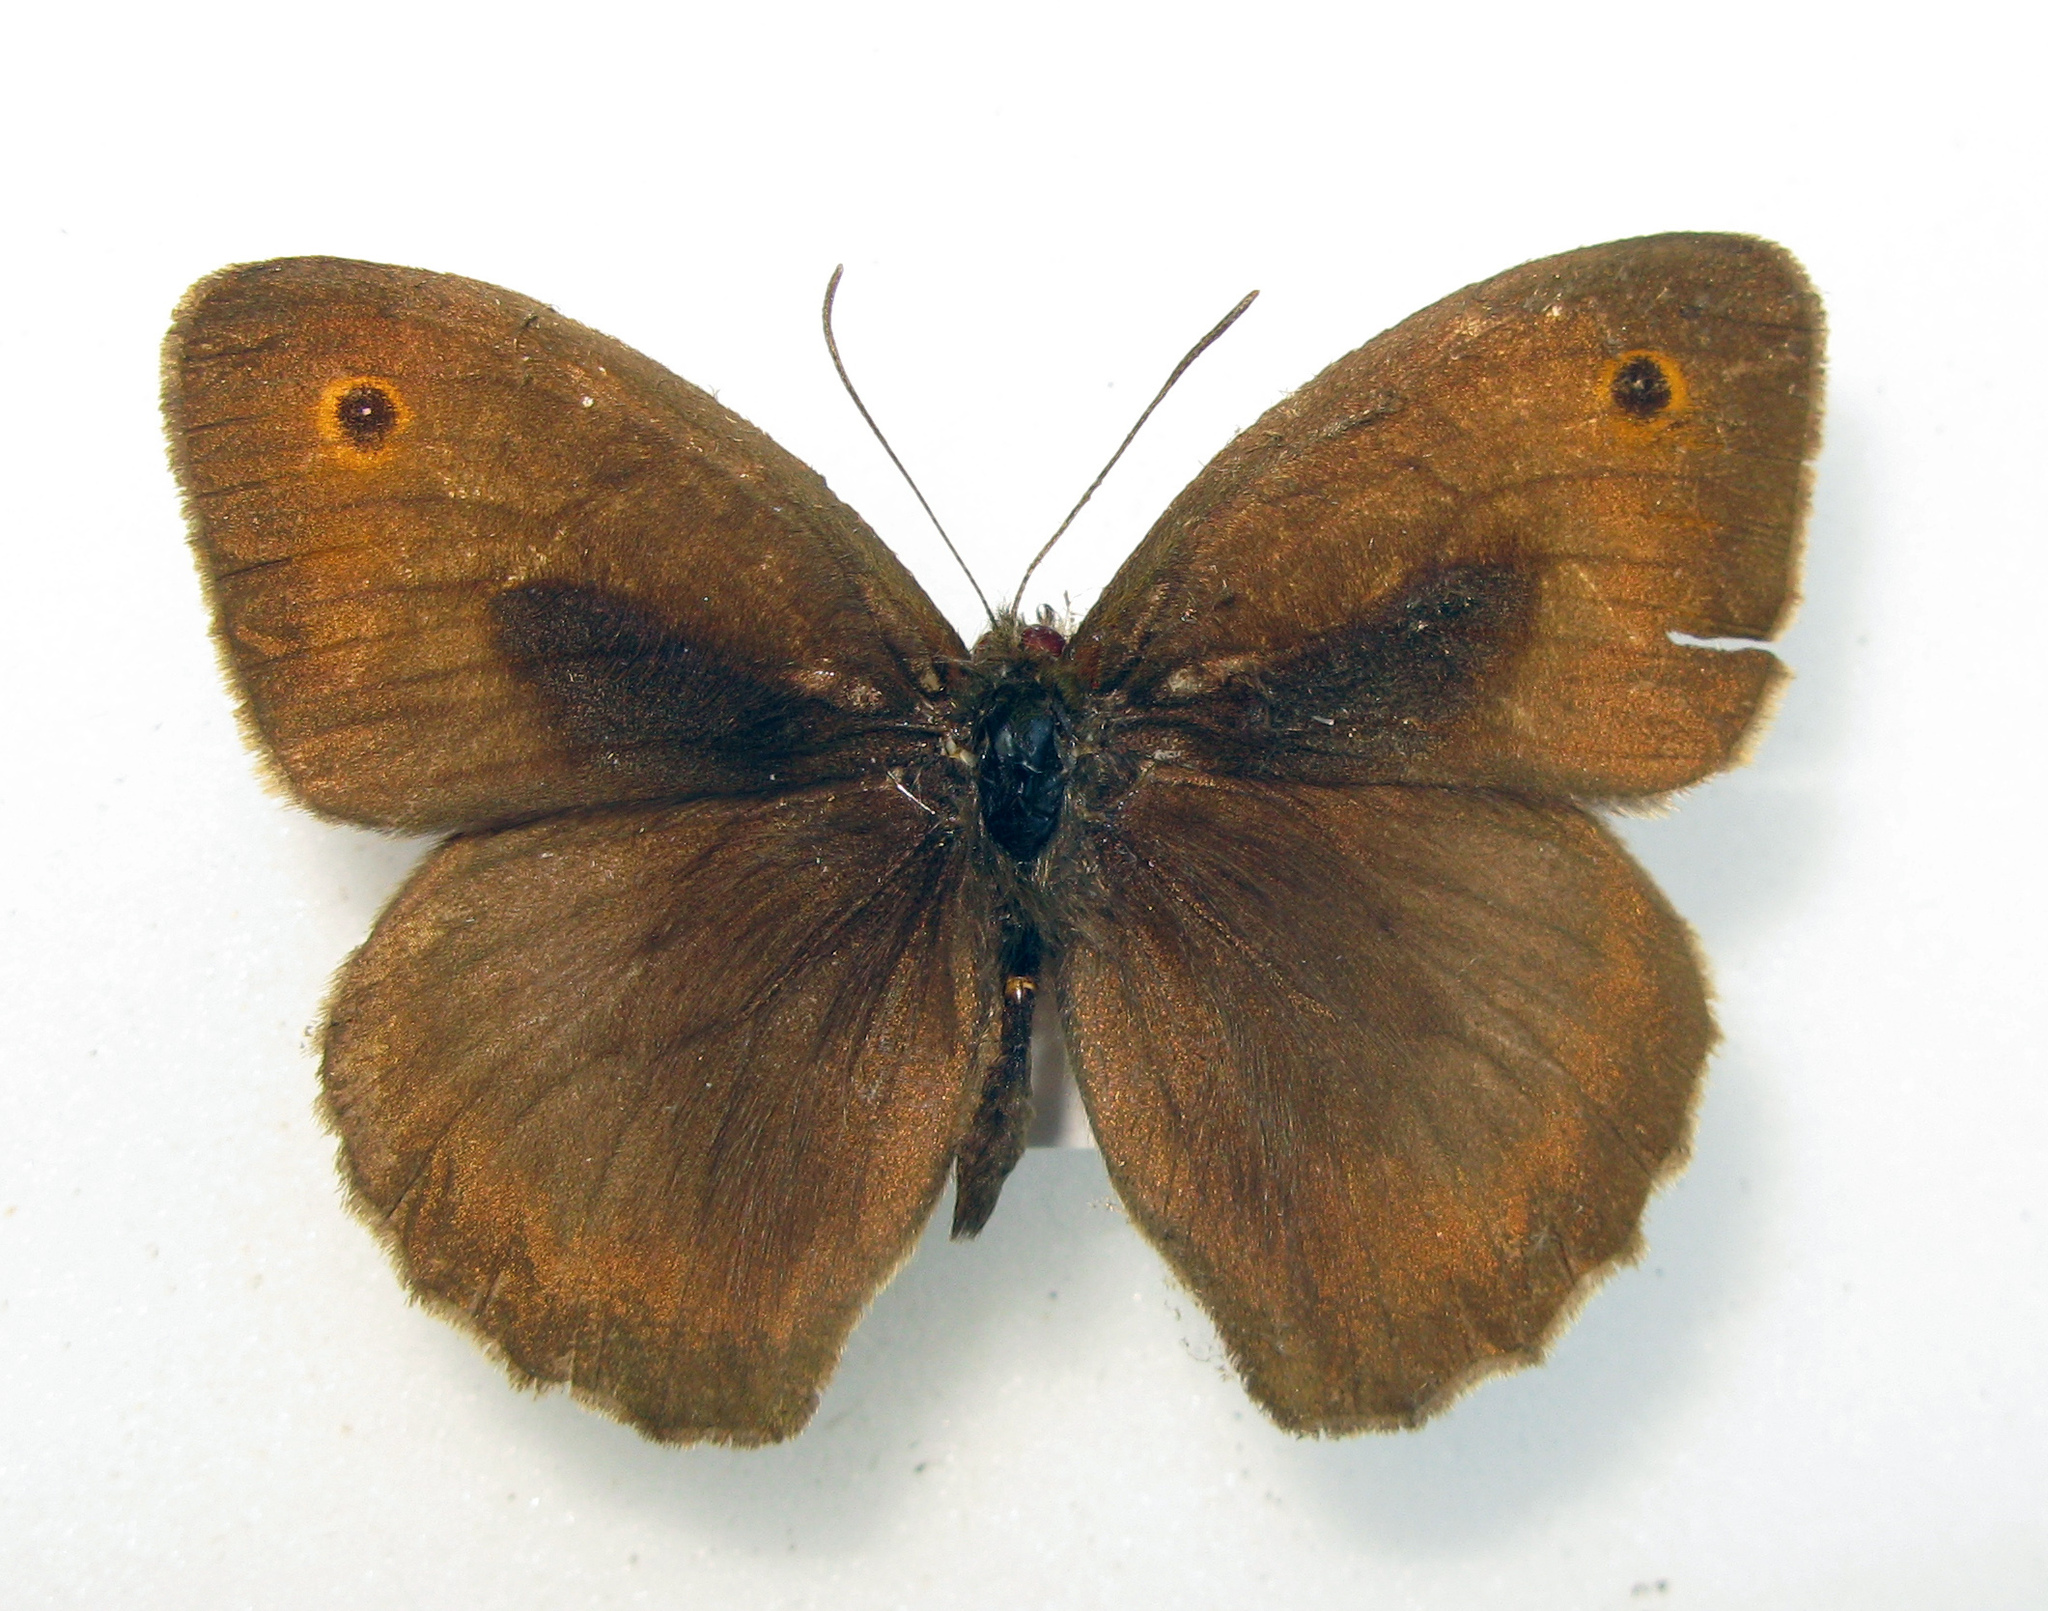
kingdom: Animalia
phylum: Arthropoda
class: Insecta
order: Lepidoptera
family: Nymphalidae
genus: Maniola
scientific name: Maniola jurtina
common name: Meadow brown
